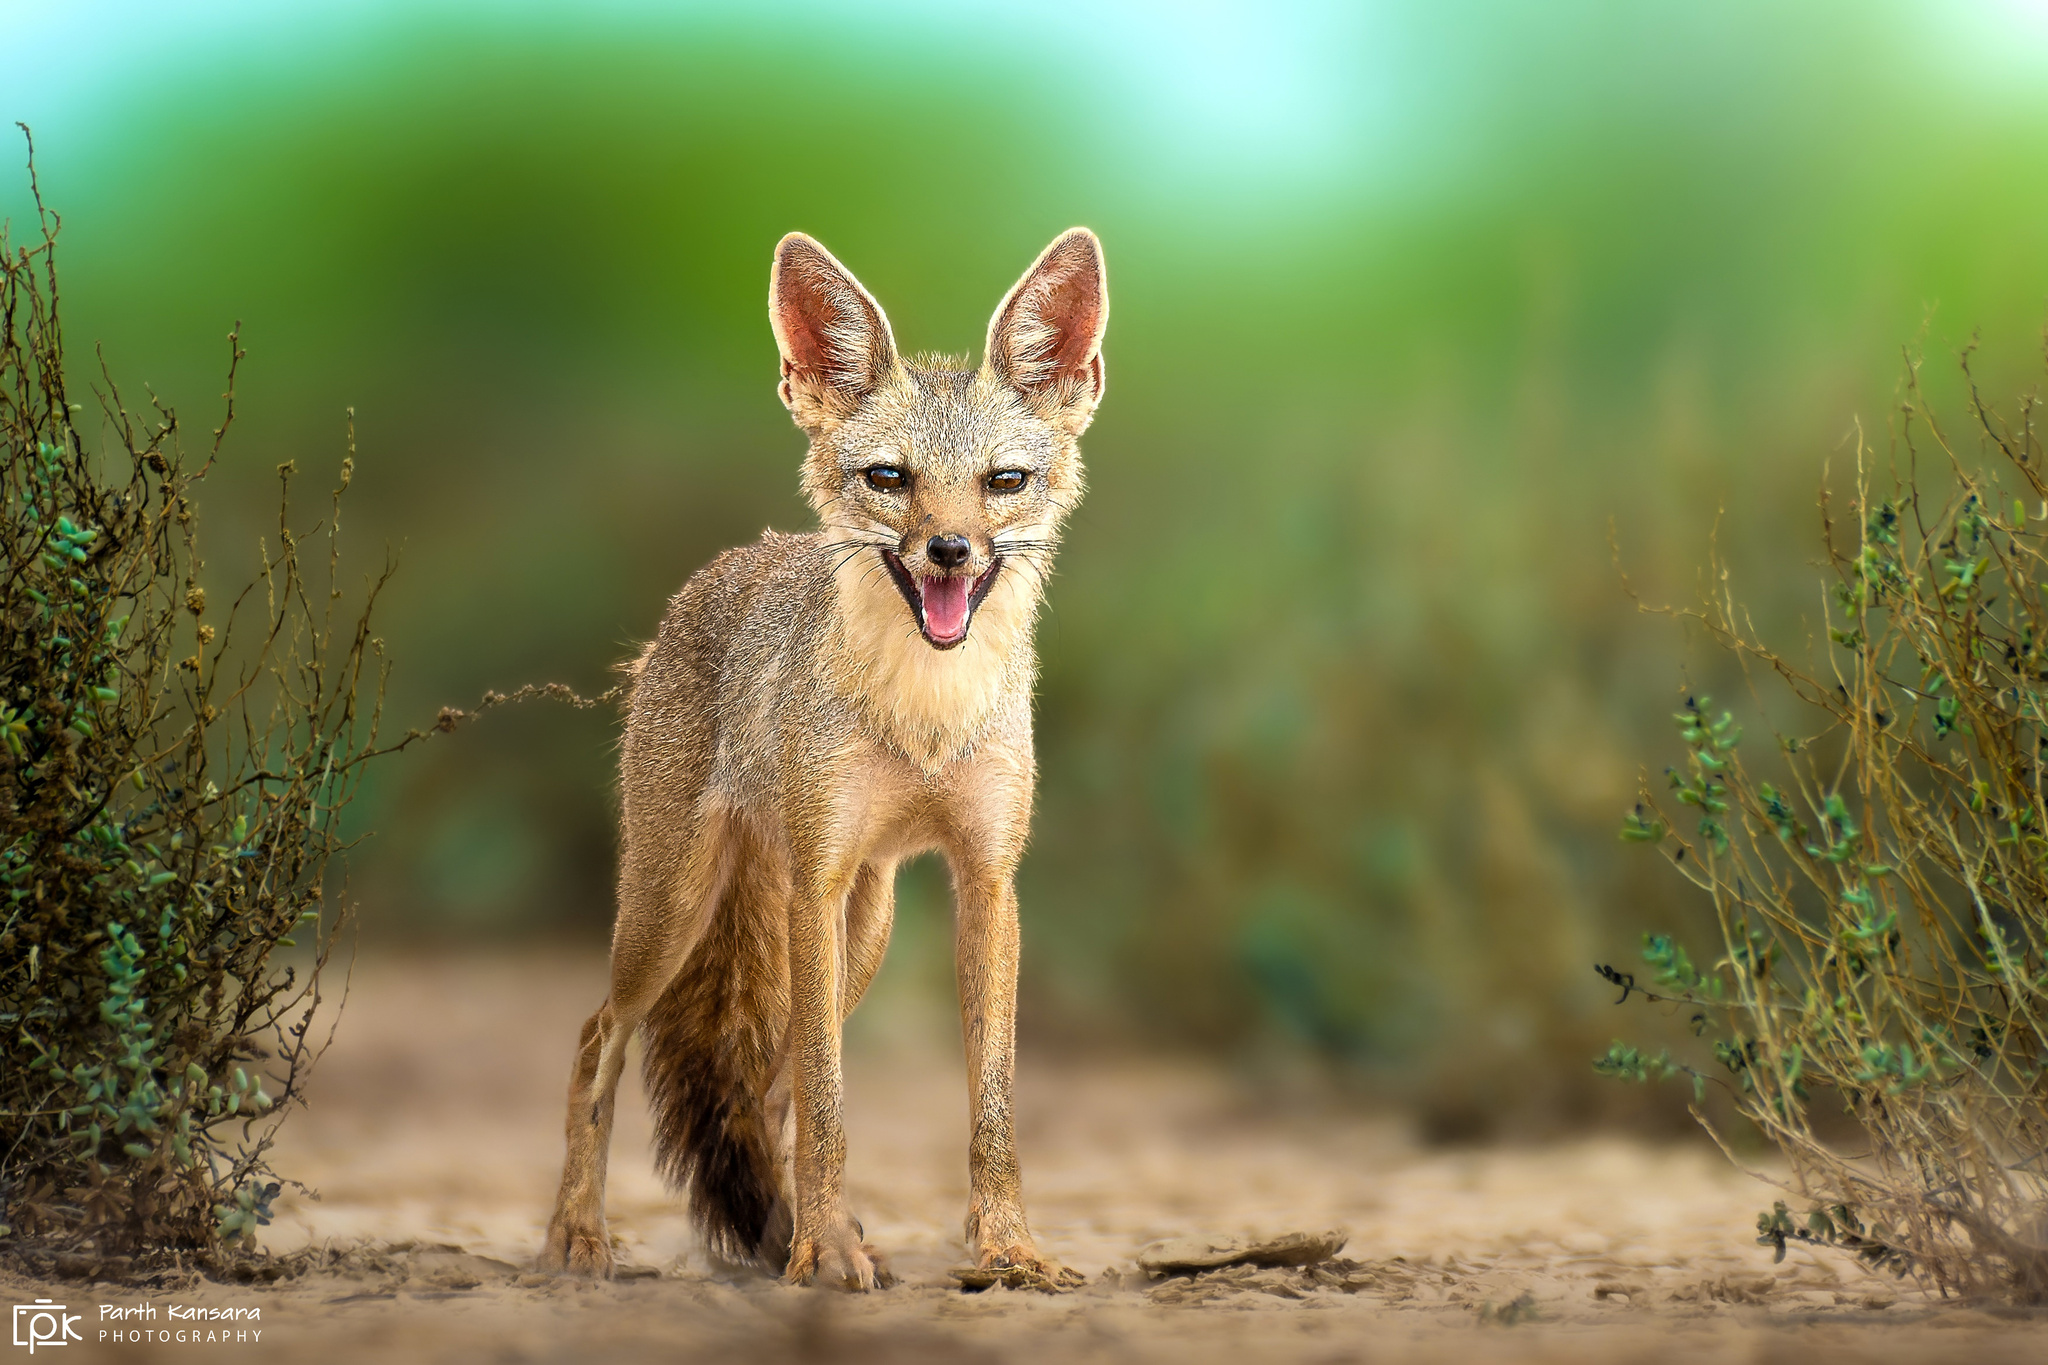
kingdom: Animalia
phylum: Chordata
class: Mammalia
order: Carnivora
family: Canidae
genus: Vulpes
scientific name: Vulpes bengalensis
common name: Bengal fox
